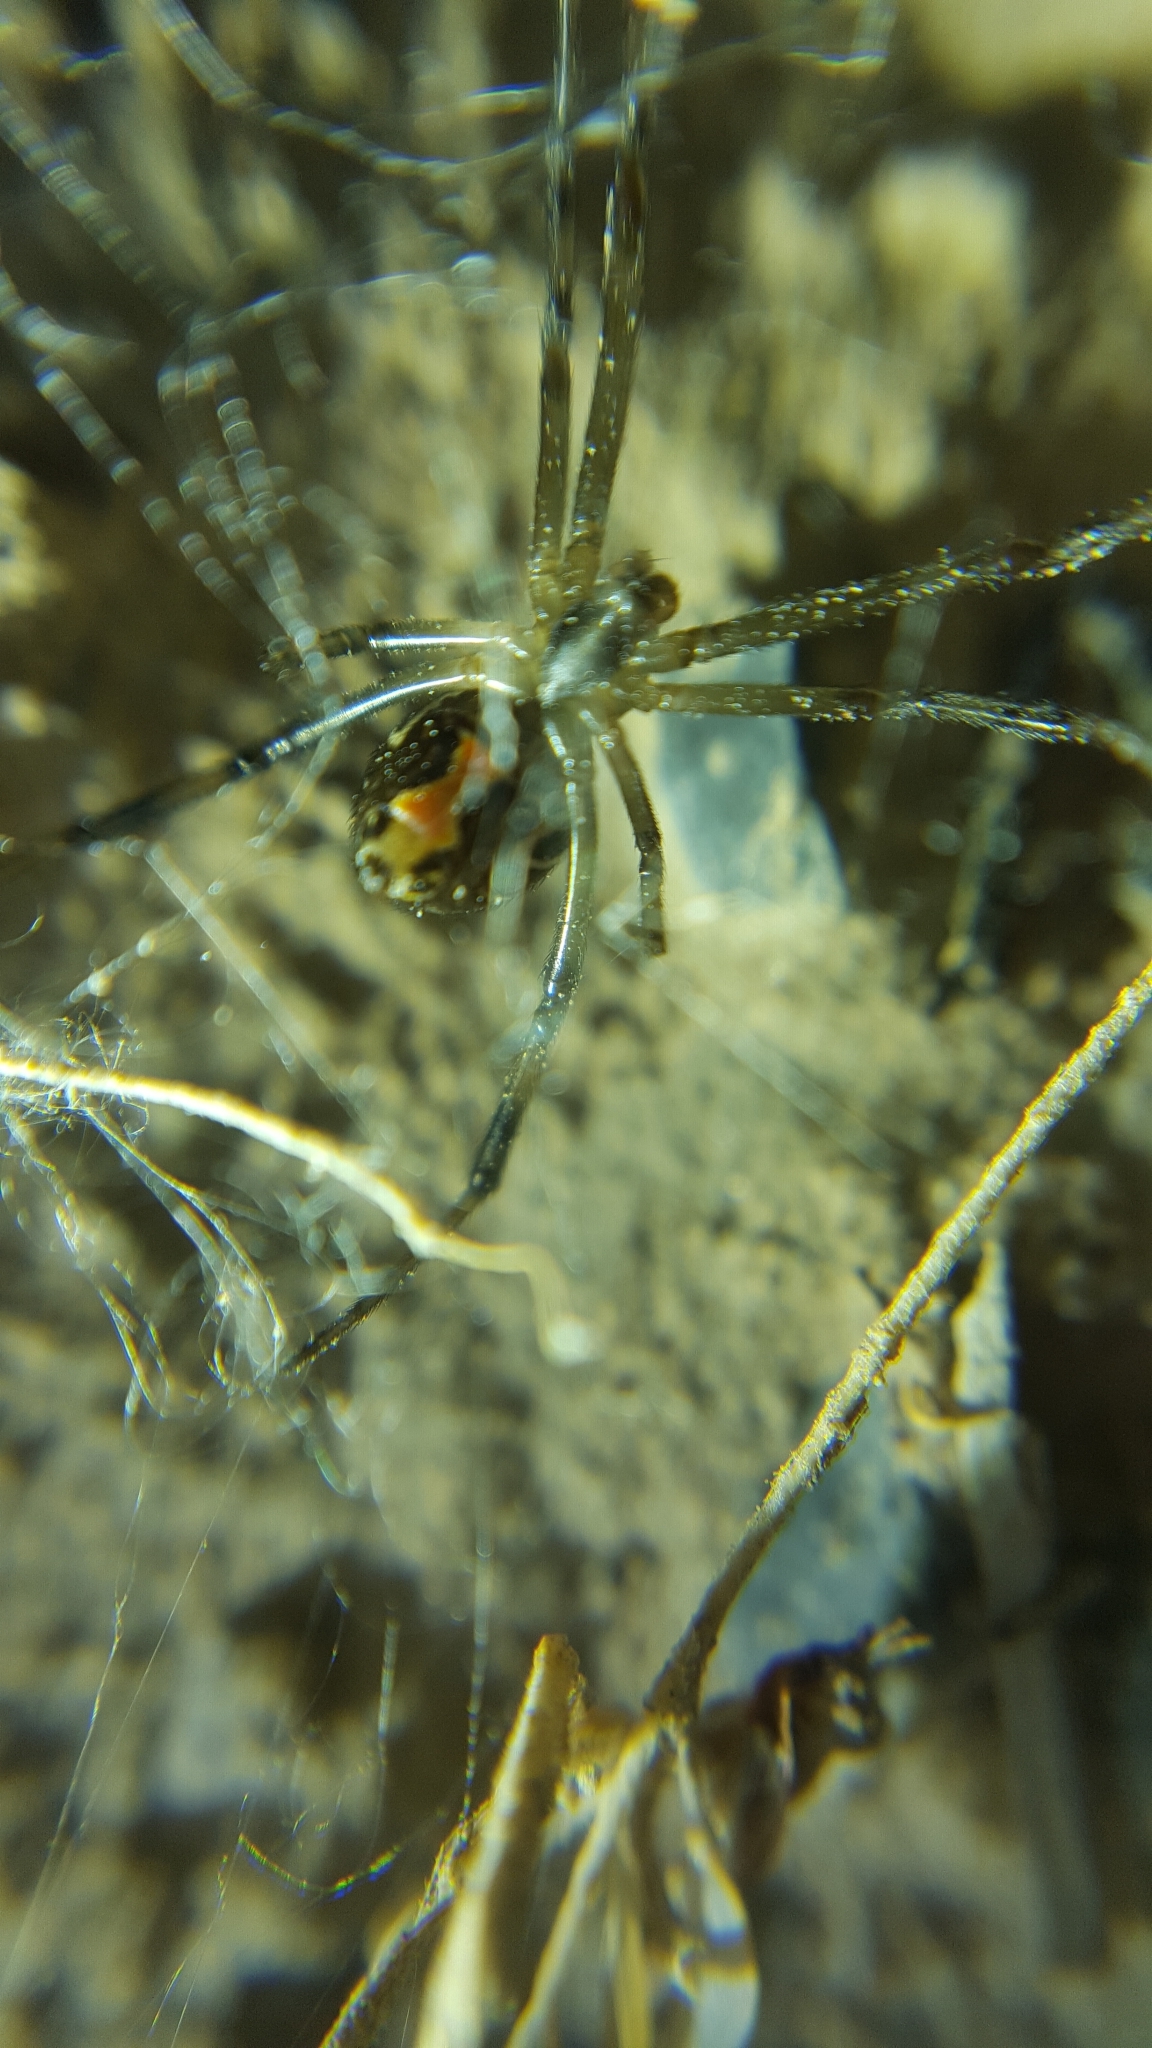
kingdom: Animalia
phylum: Arthropoda
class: Arachnida
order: Araneae
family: Theridiidae
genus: Latrodectus
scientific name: Latrodectus hesperus
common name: Western black widow
